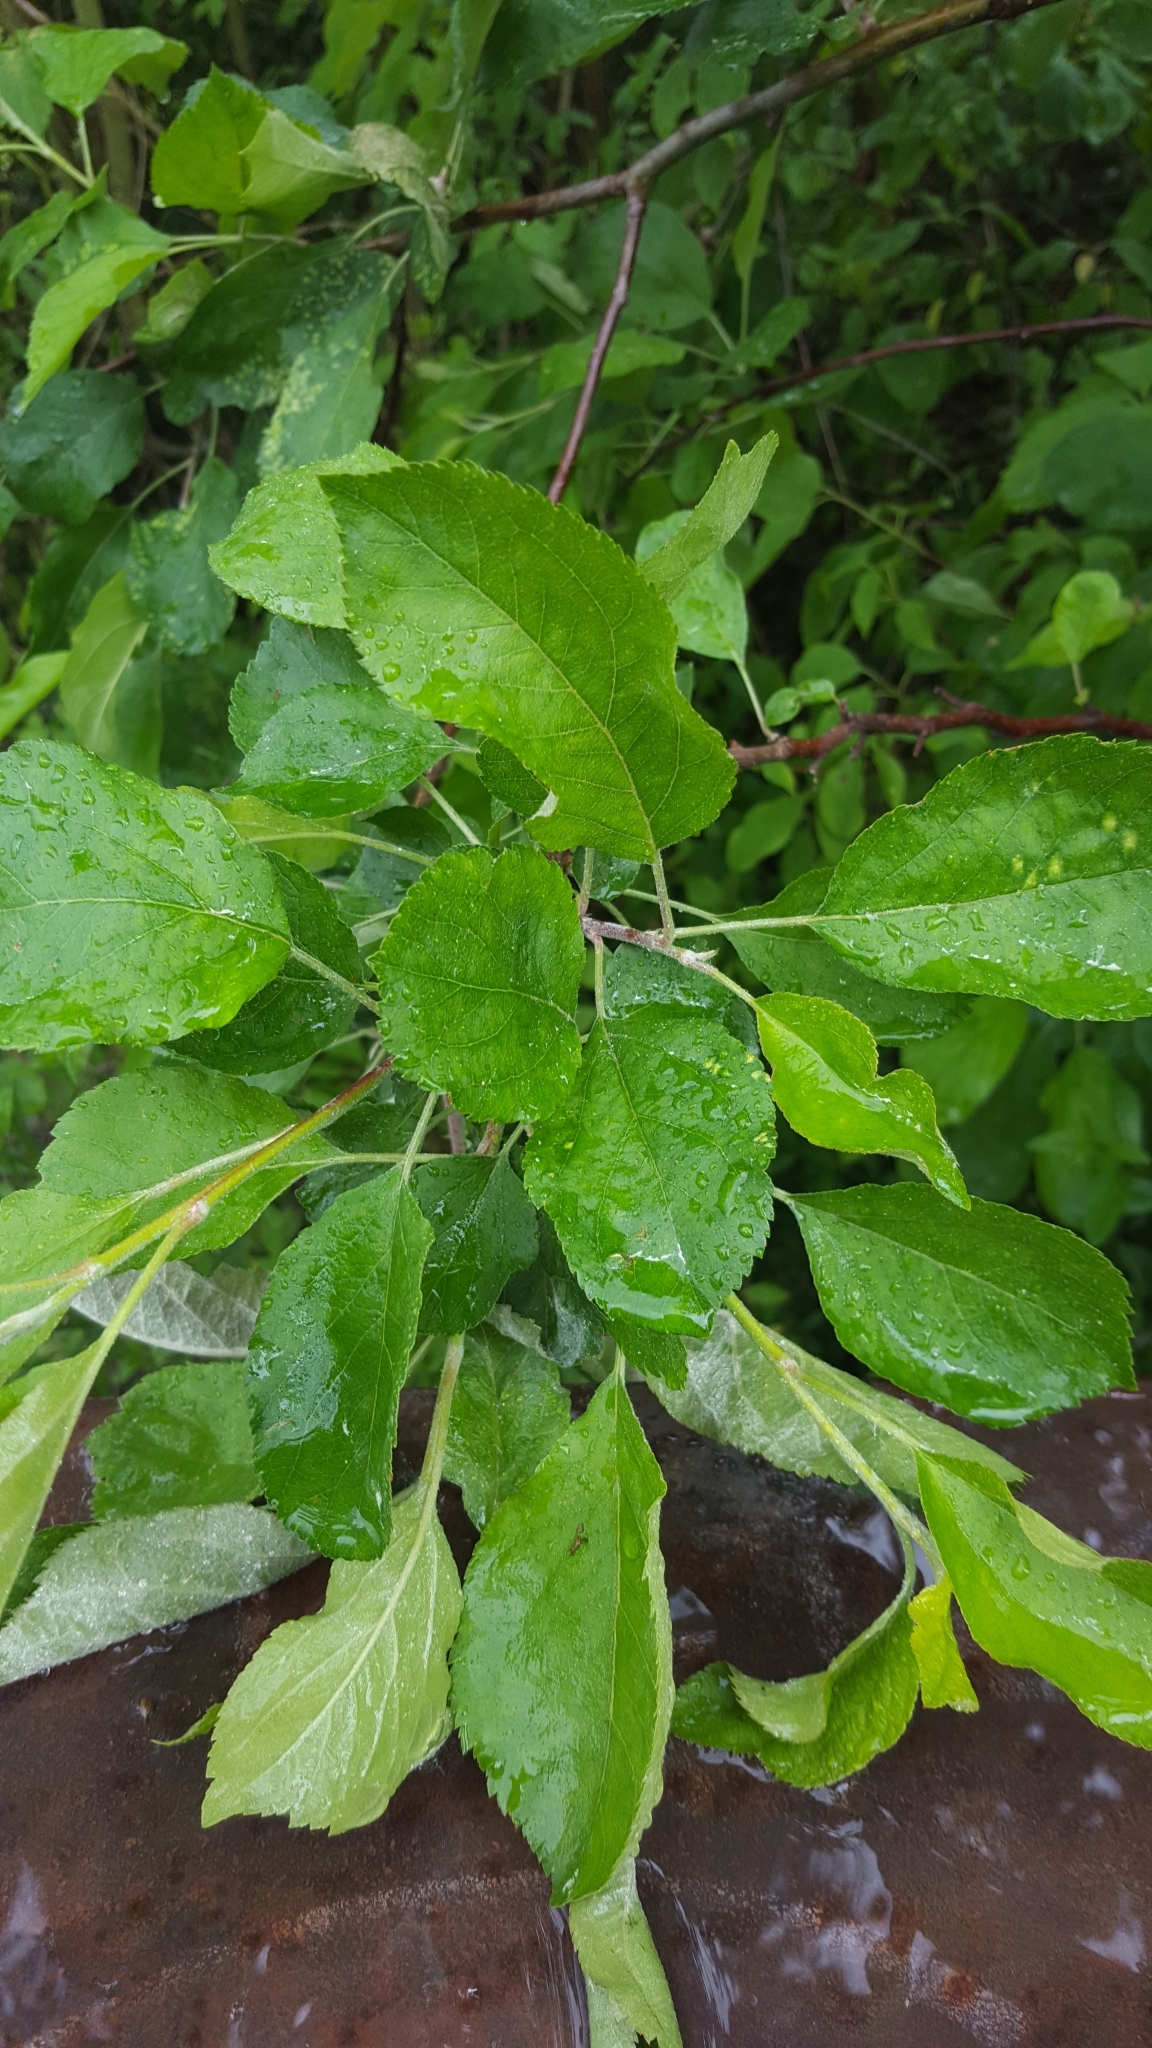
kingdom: Plantae
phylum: Tracheophyta
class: Magnoliopsida
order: Rosales
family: Rosaceae
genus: Malus
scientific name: Malus domestica
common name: Apple
